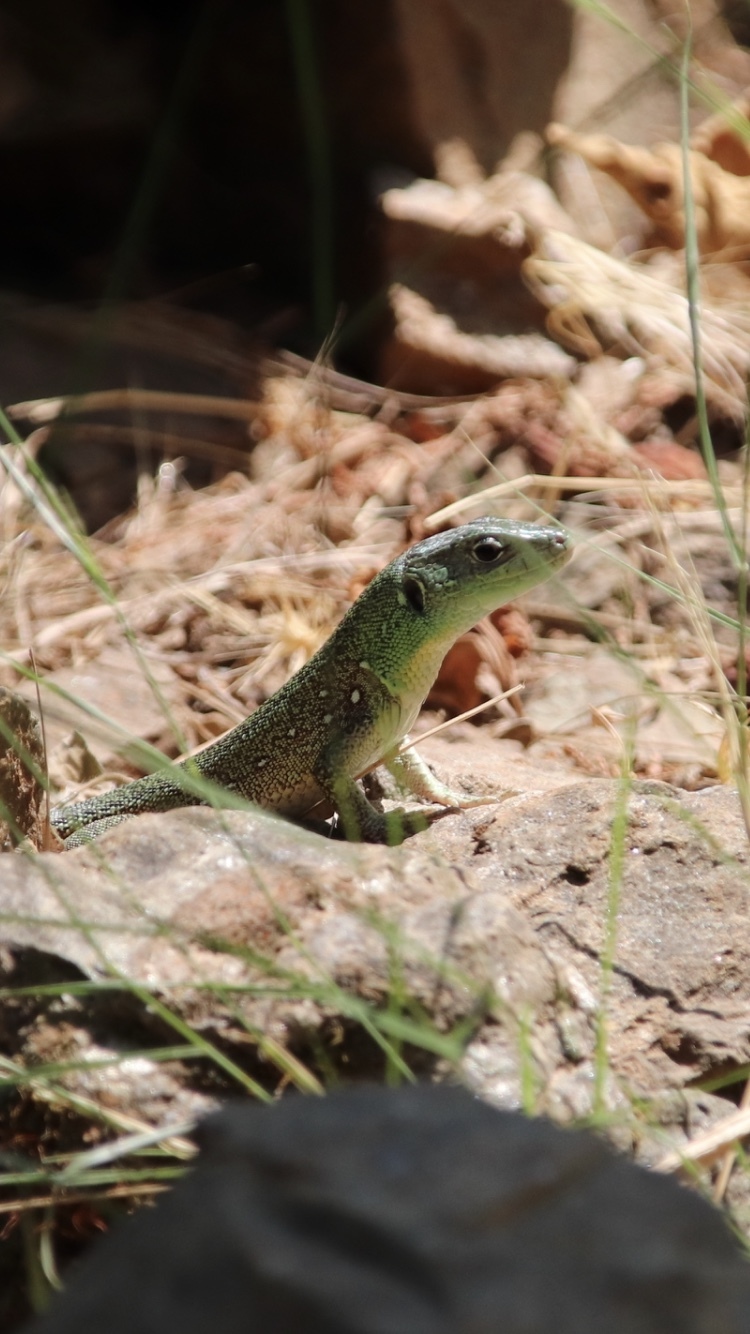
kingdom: Animalia
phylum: Chordata
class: Squamata
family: Lacertidae
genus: Lacerta
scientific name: Lacerta trilineata
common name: Balkan green lizard
